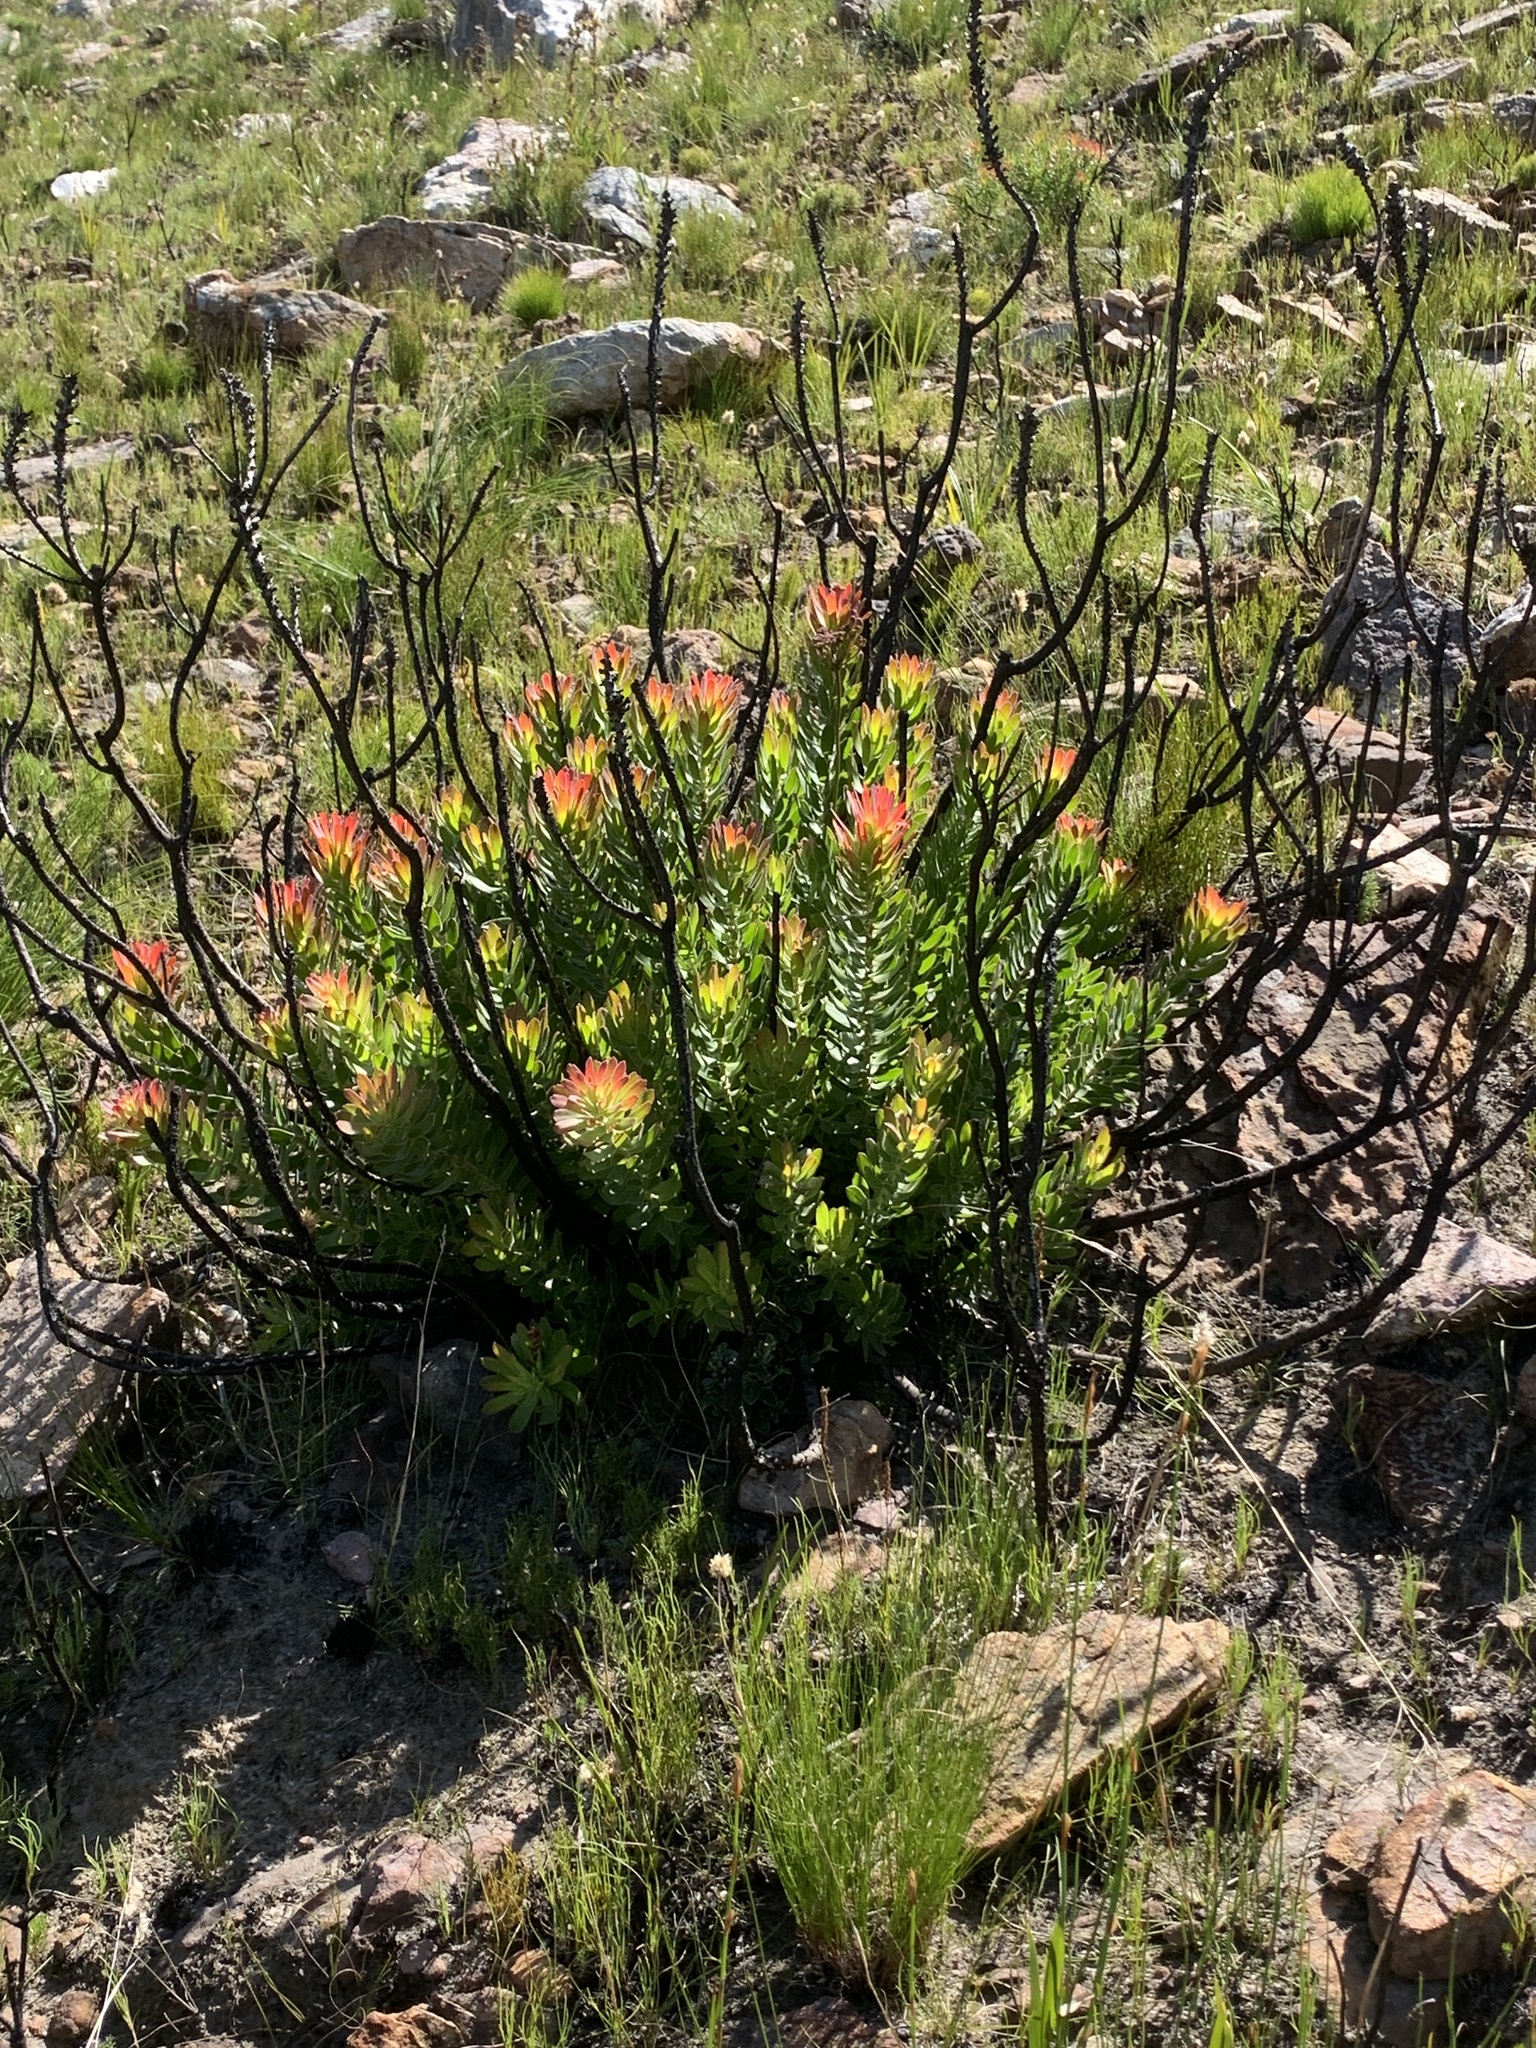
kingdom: Plantae
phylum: Tracheophyta
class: Magnoliopsida
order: Proteales
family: Proteaceae
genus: Mimetes
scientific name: Mimetes cucullatus
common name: Common pagoda
